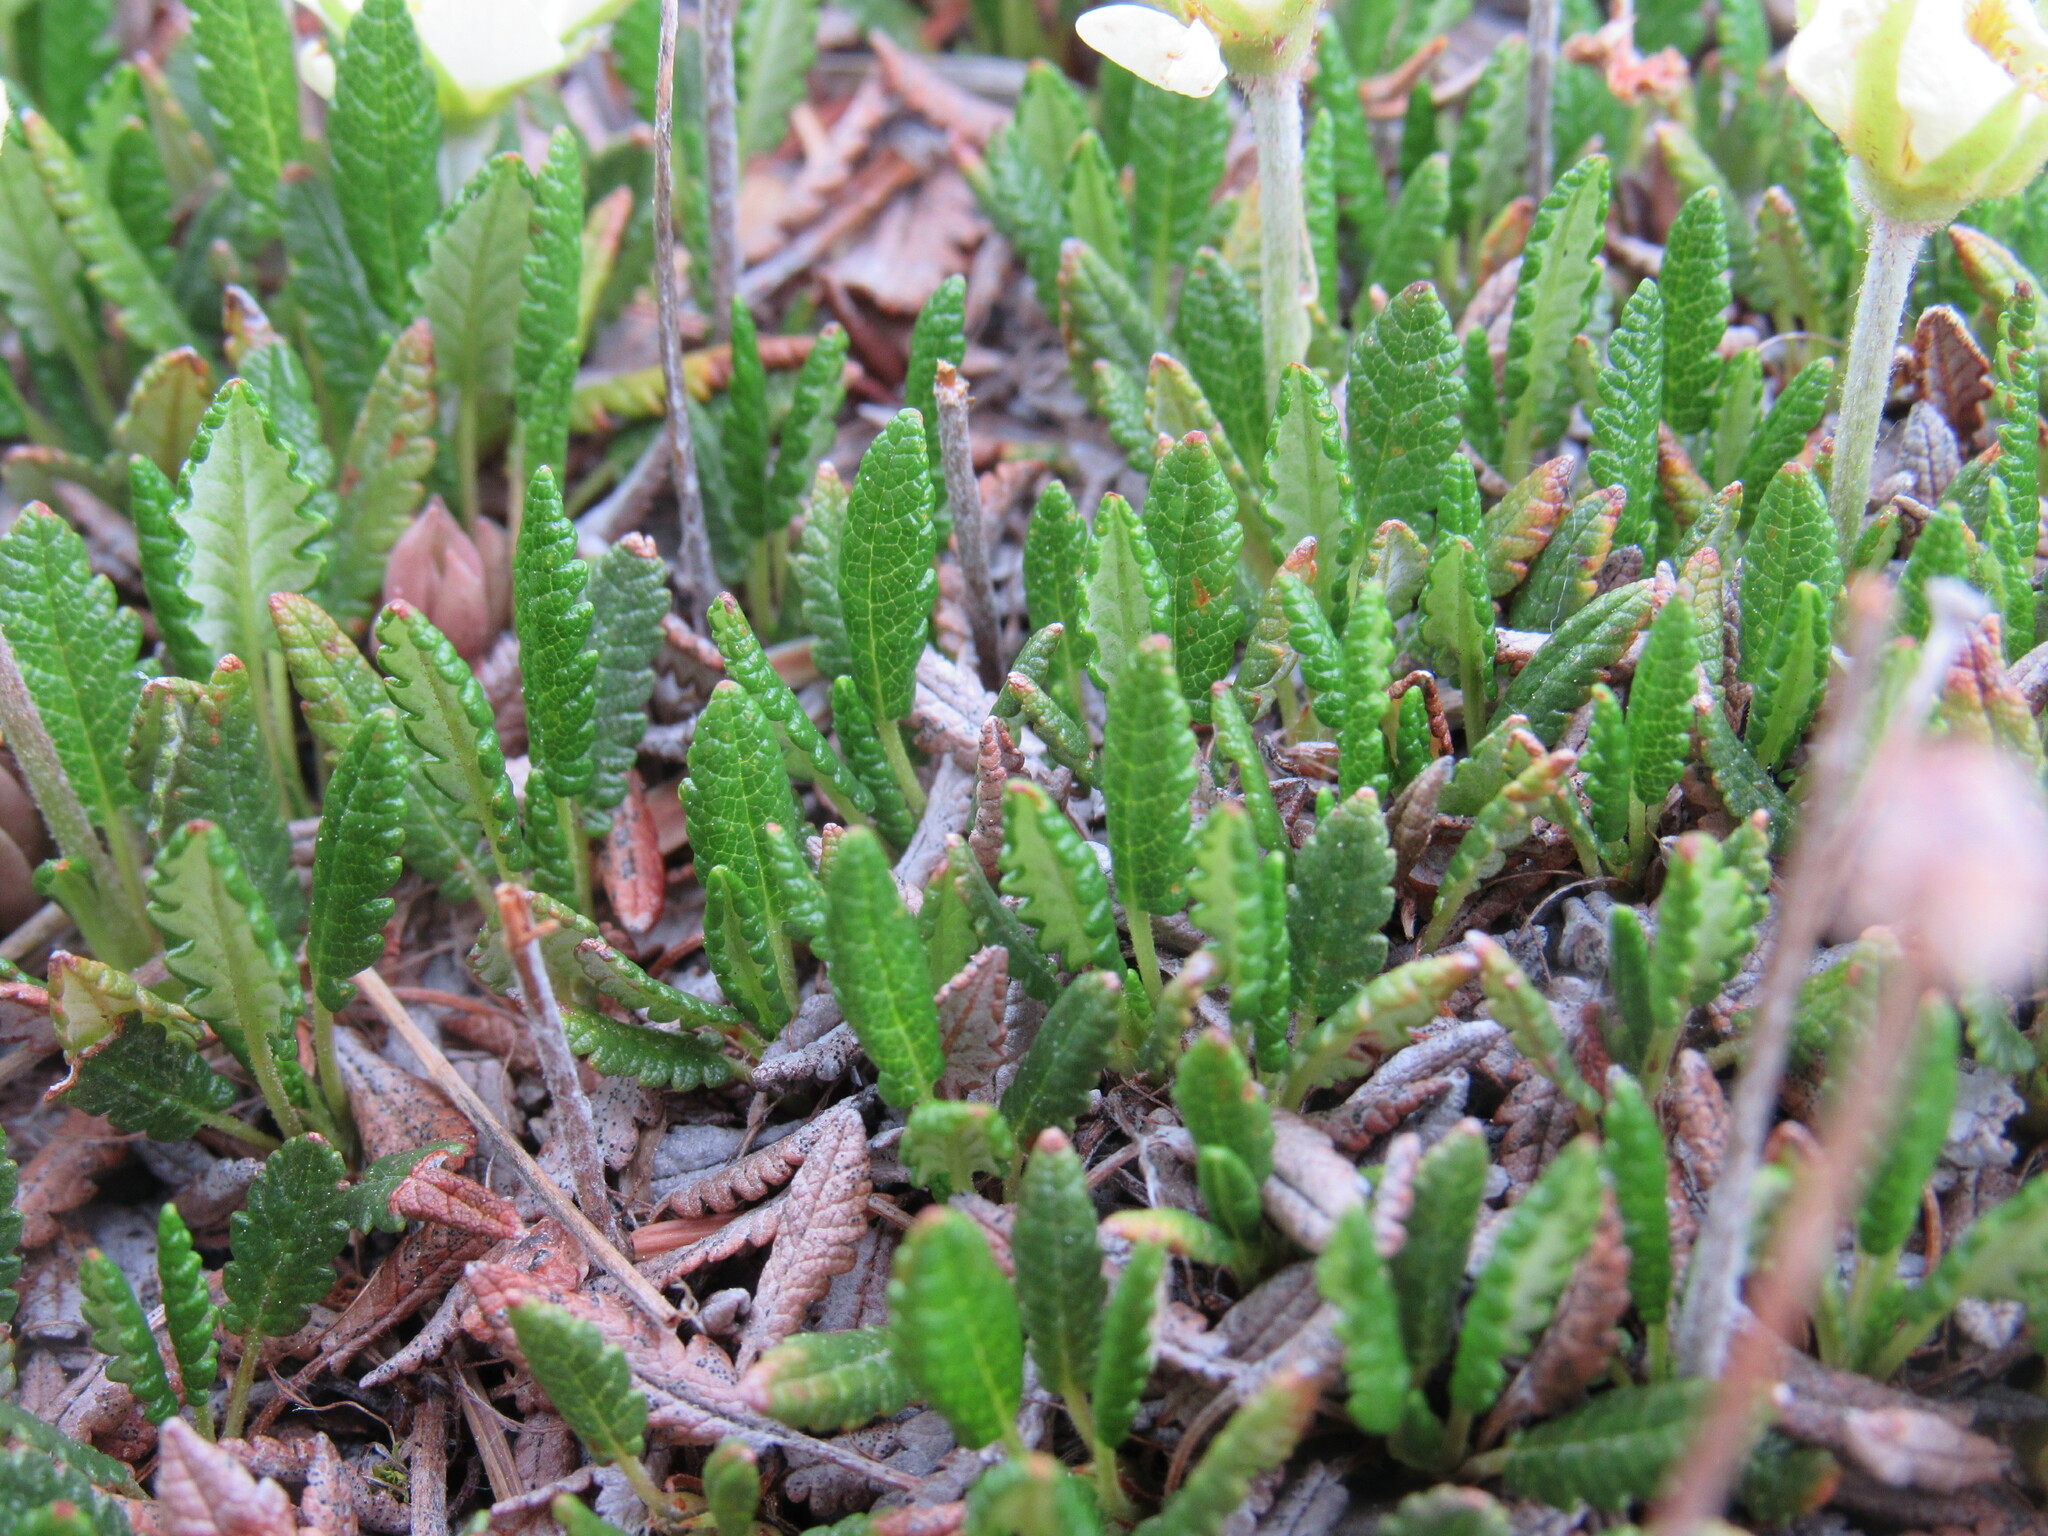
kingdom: Plantae
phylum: Tracheophyta
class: Magnoliopsida
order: Rosales
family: Rosaceae
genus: Dryas
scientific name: Dryas octopetala
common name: Eight-petal mountain-avens
